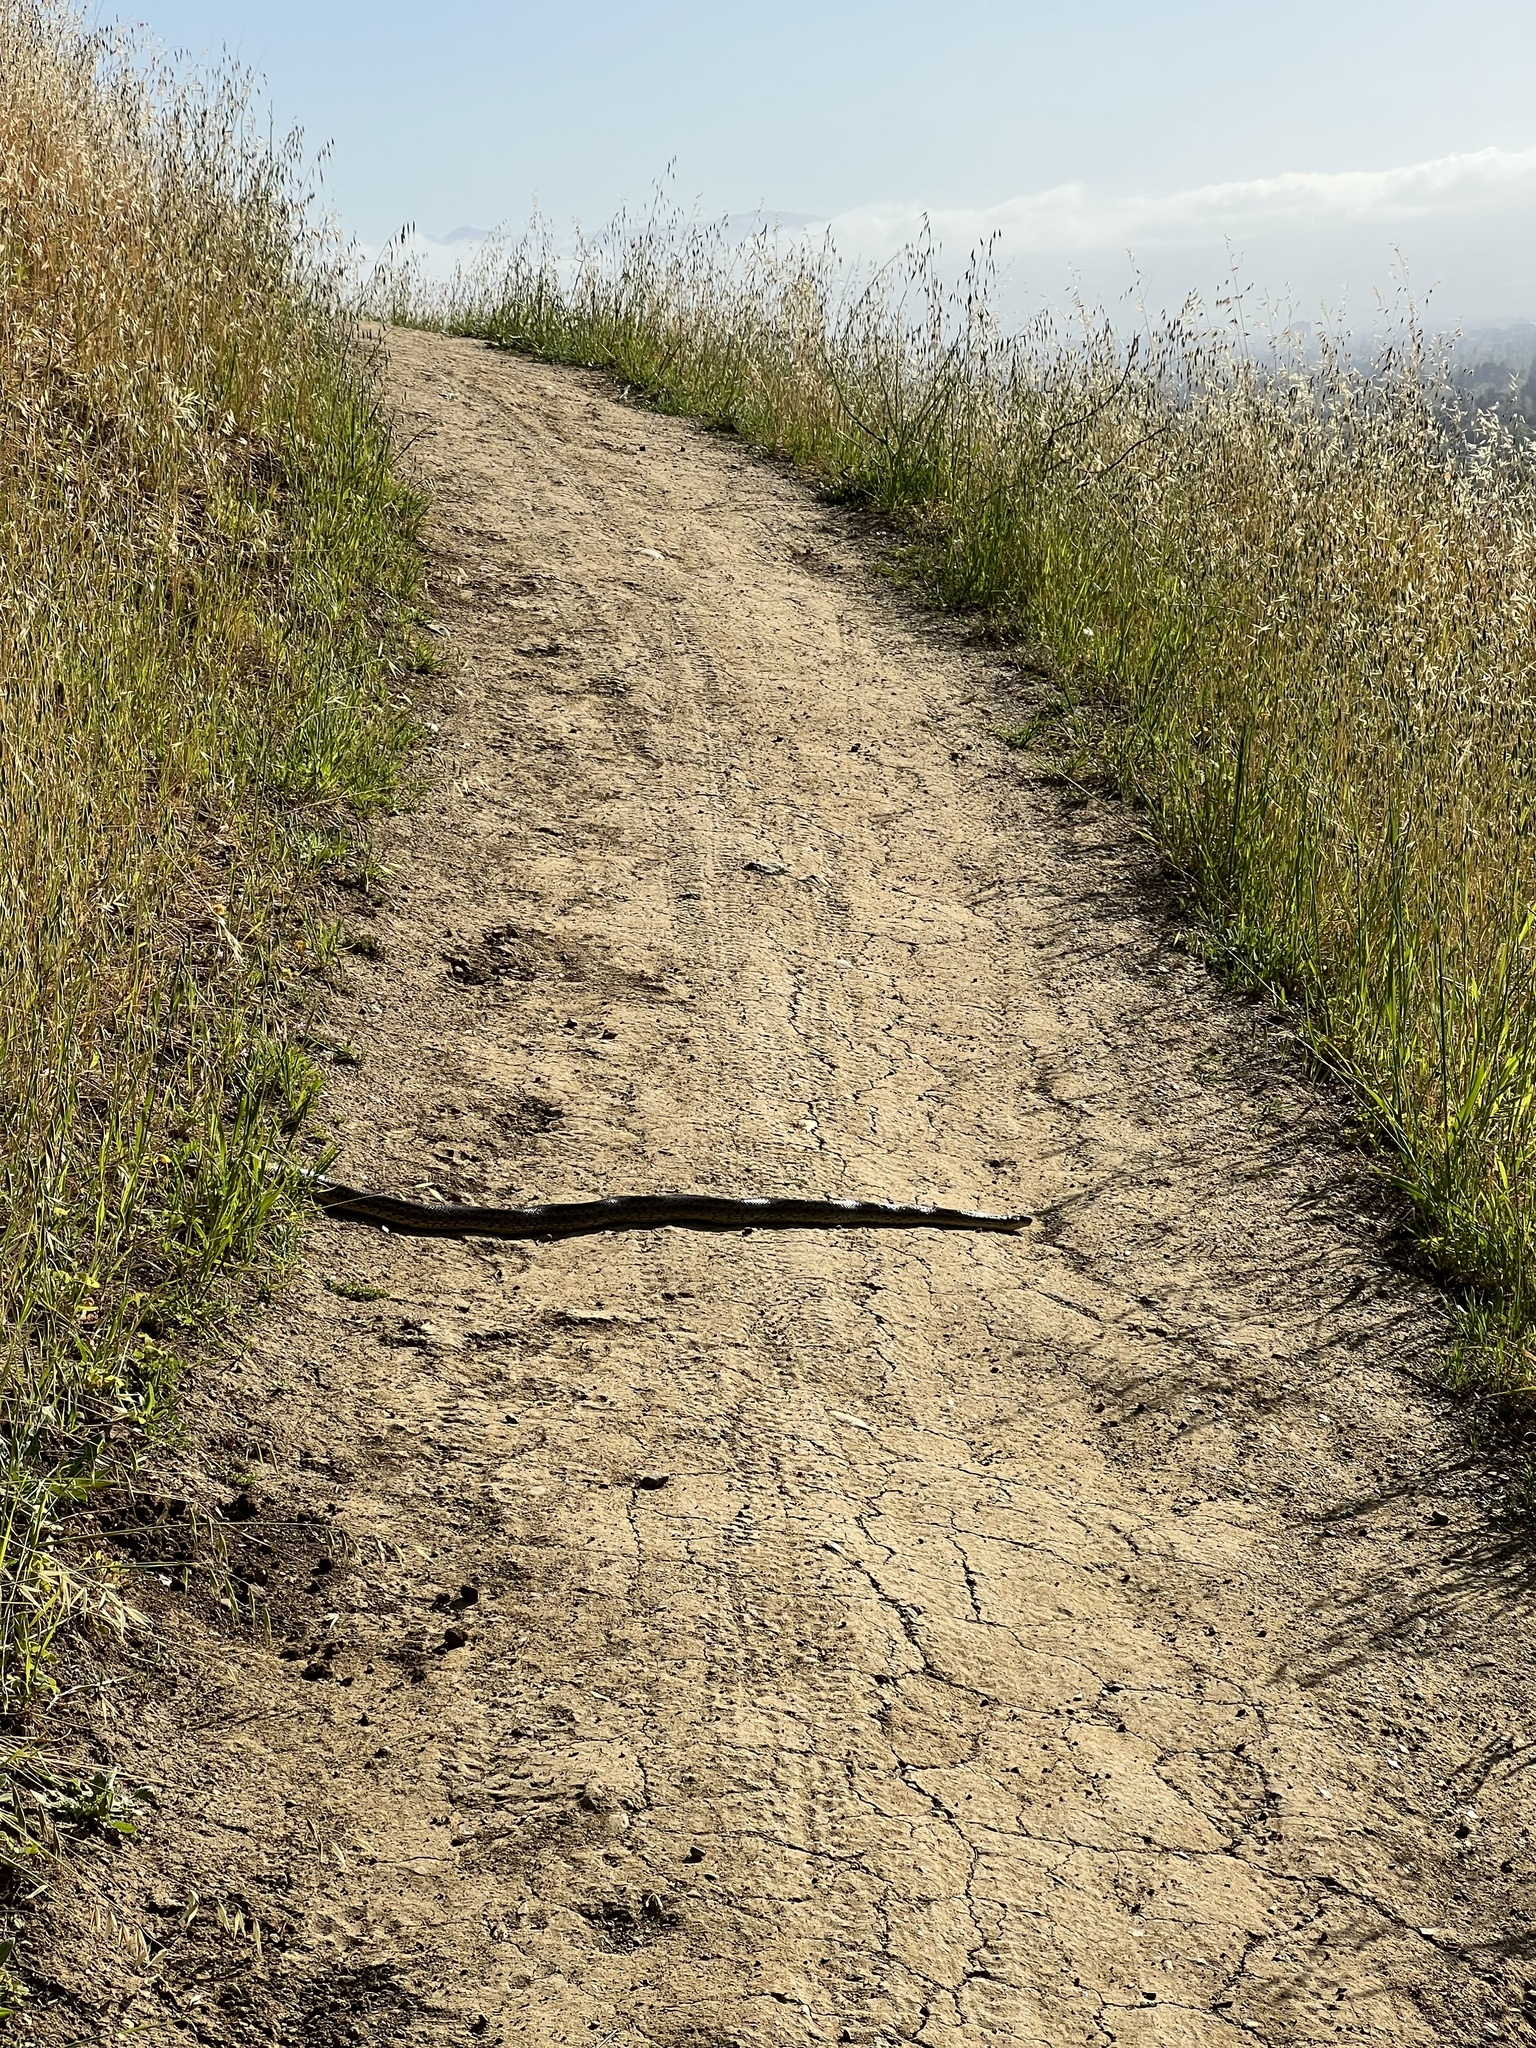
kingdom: Animalia
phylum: Chordata
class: Squamata
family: Colubridae
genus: Pituophis
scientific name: Pituophis catenifer
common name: Gopher snake
